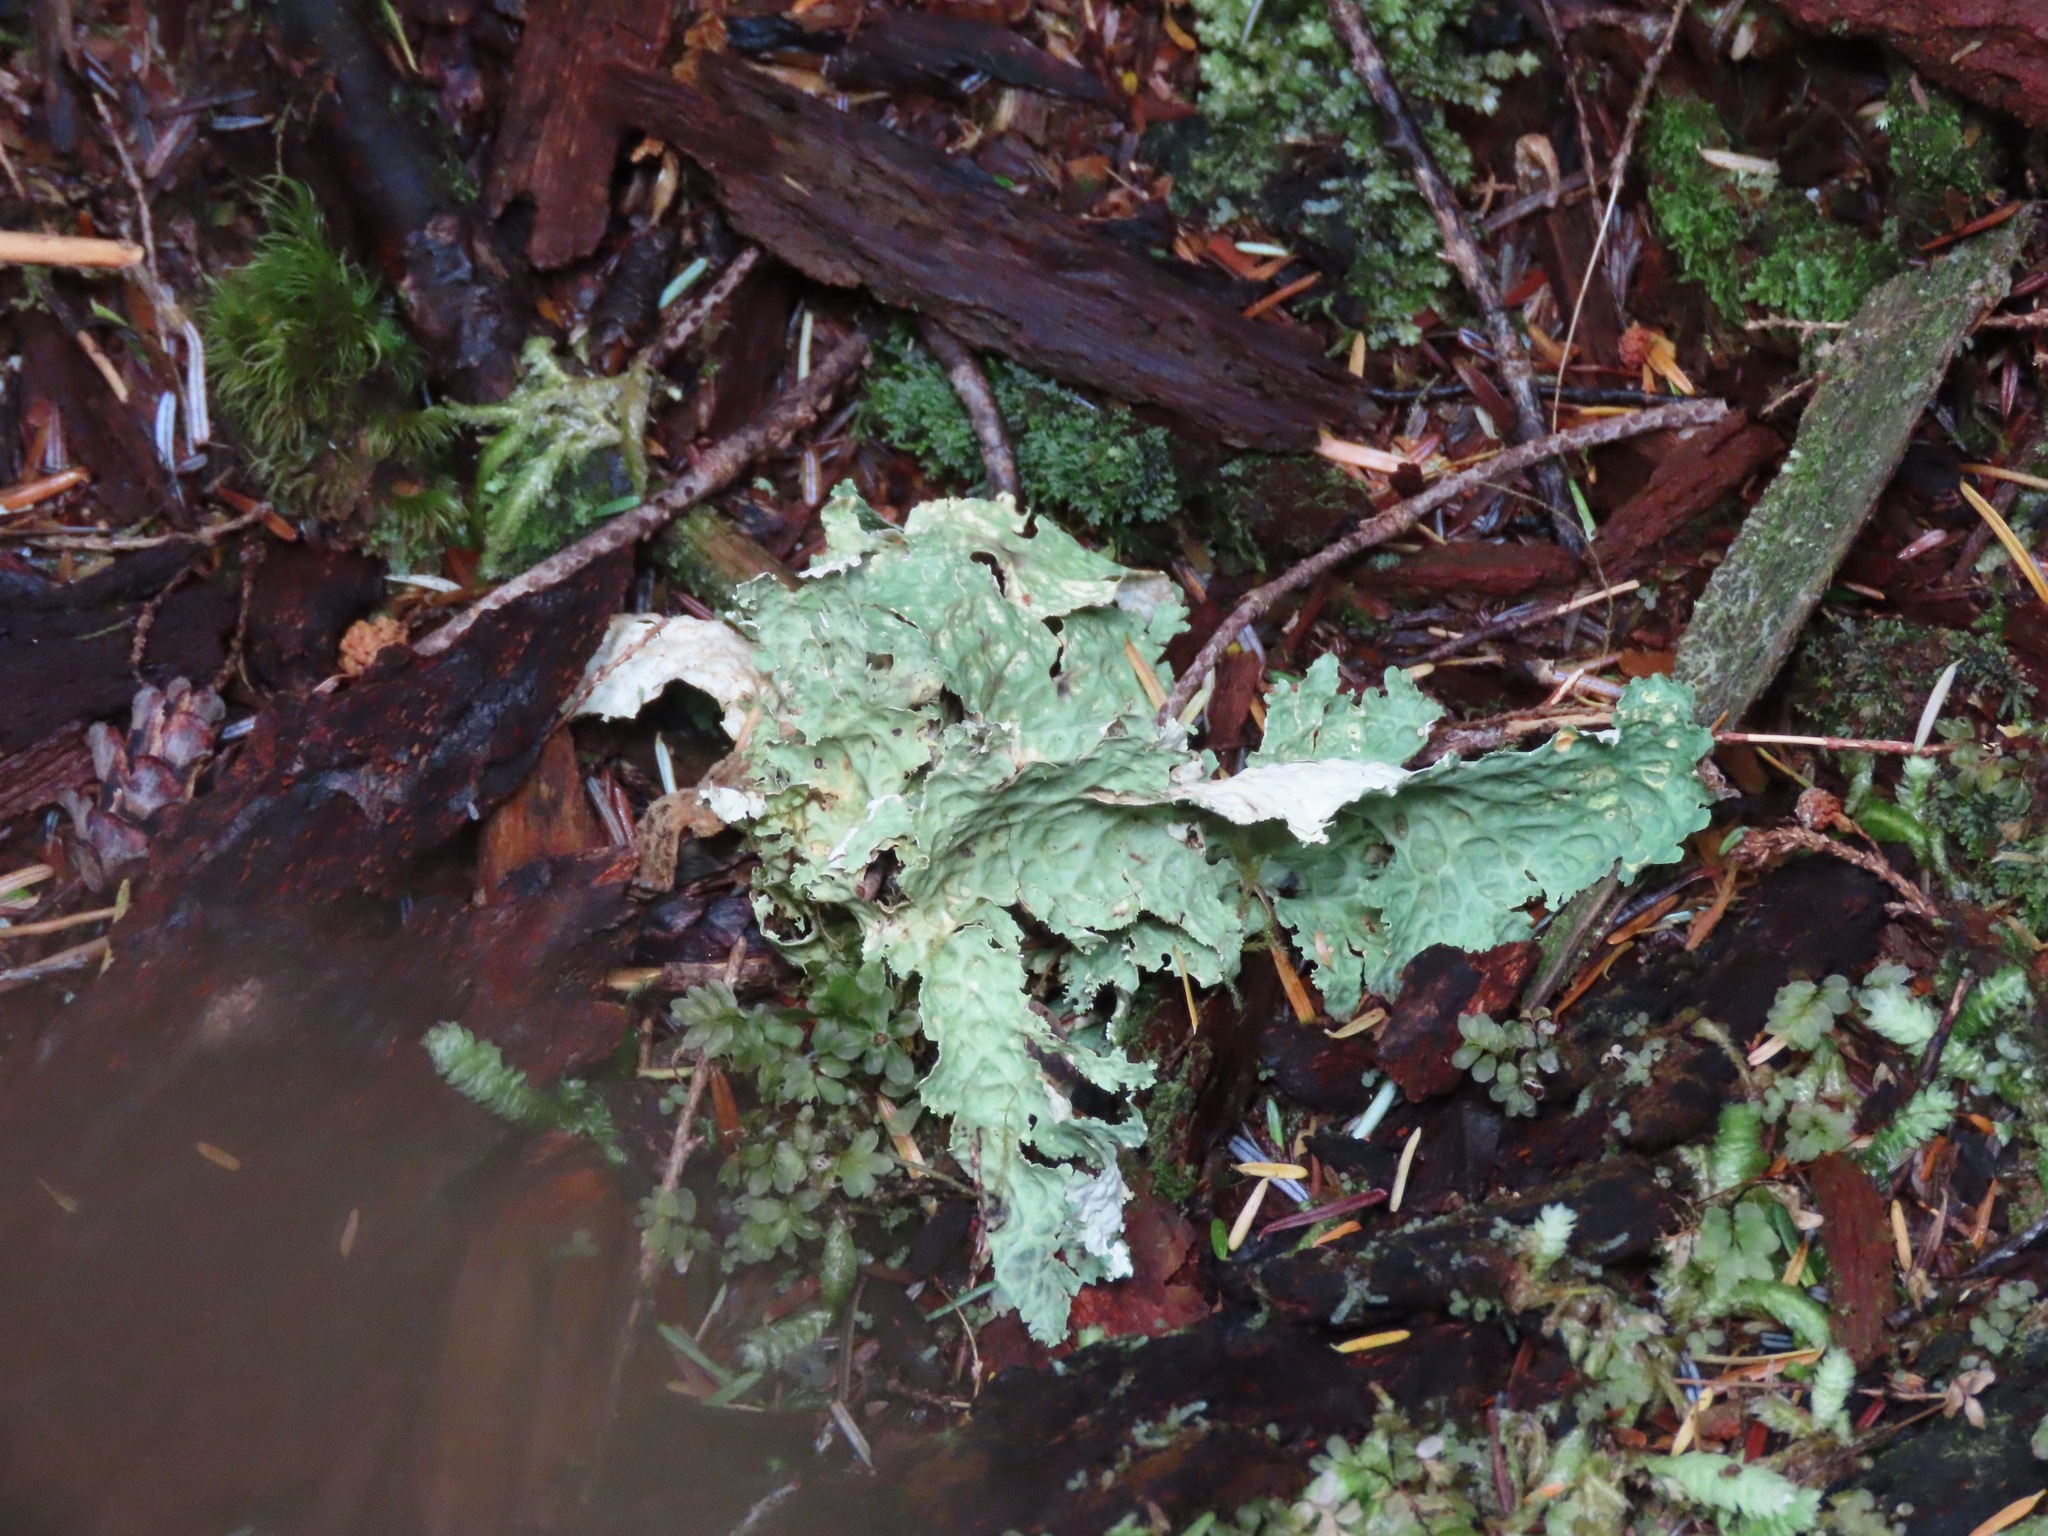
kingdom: Fungi
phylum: Ascomycota
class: Lecanoromycetes
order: Peltigerales
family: Lobariaceae
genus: Lobaria
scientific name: Lobaria oregana
